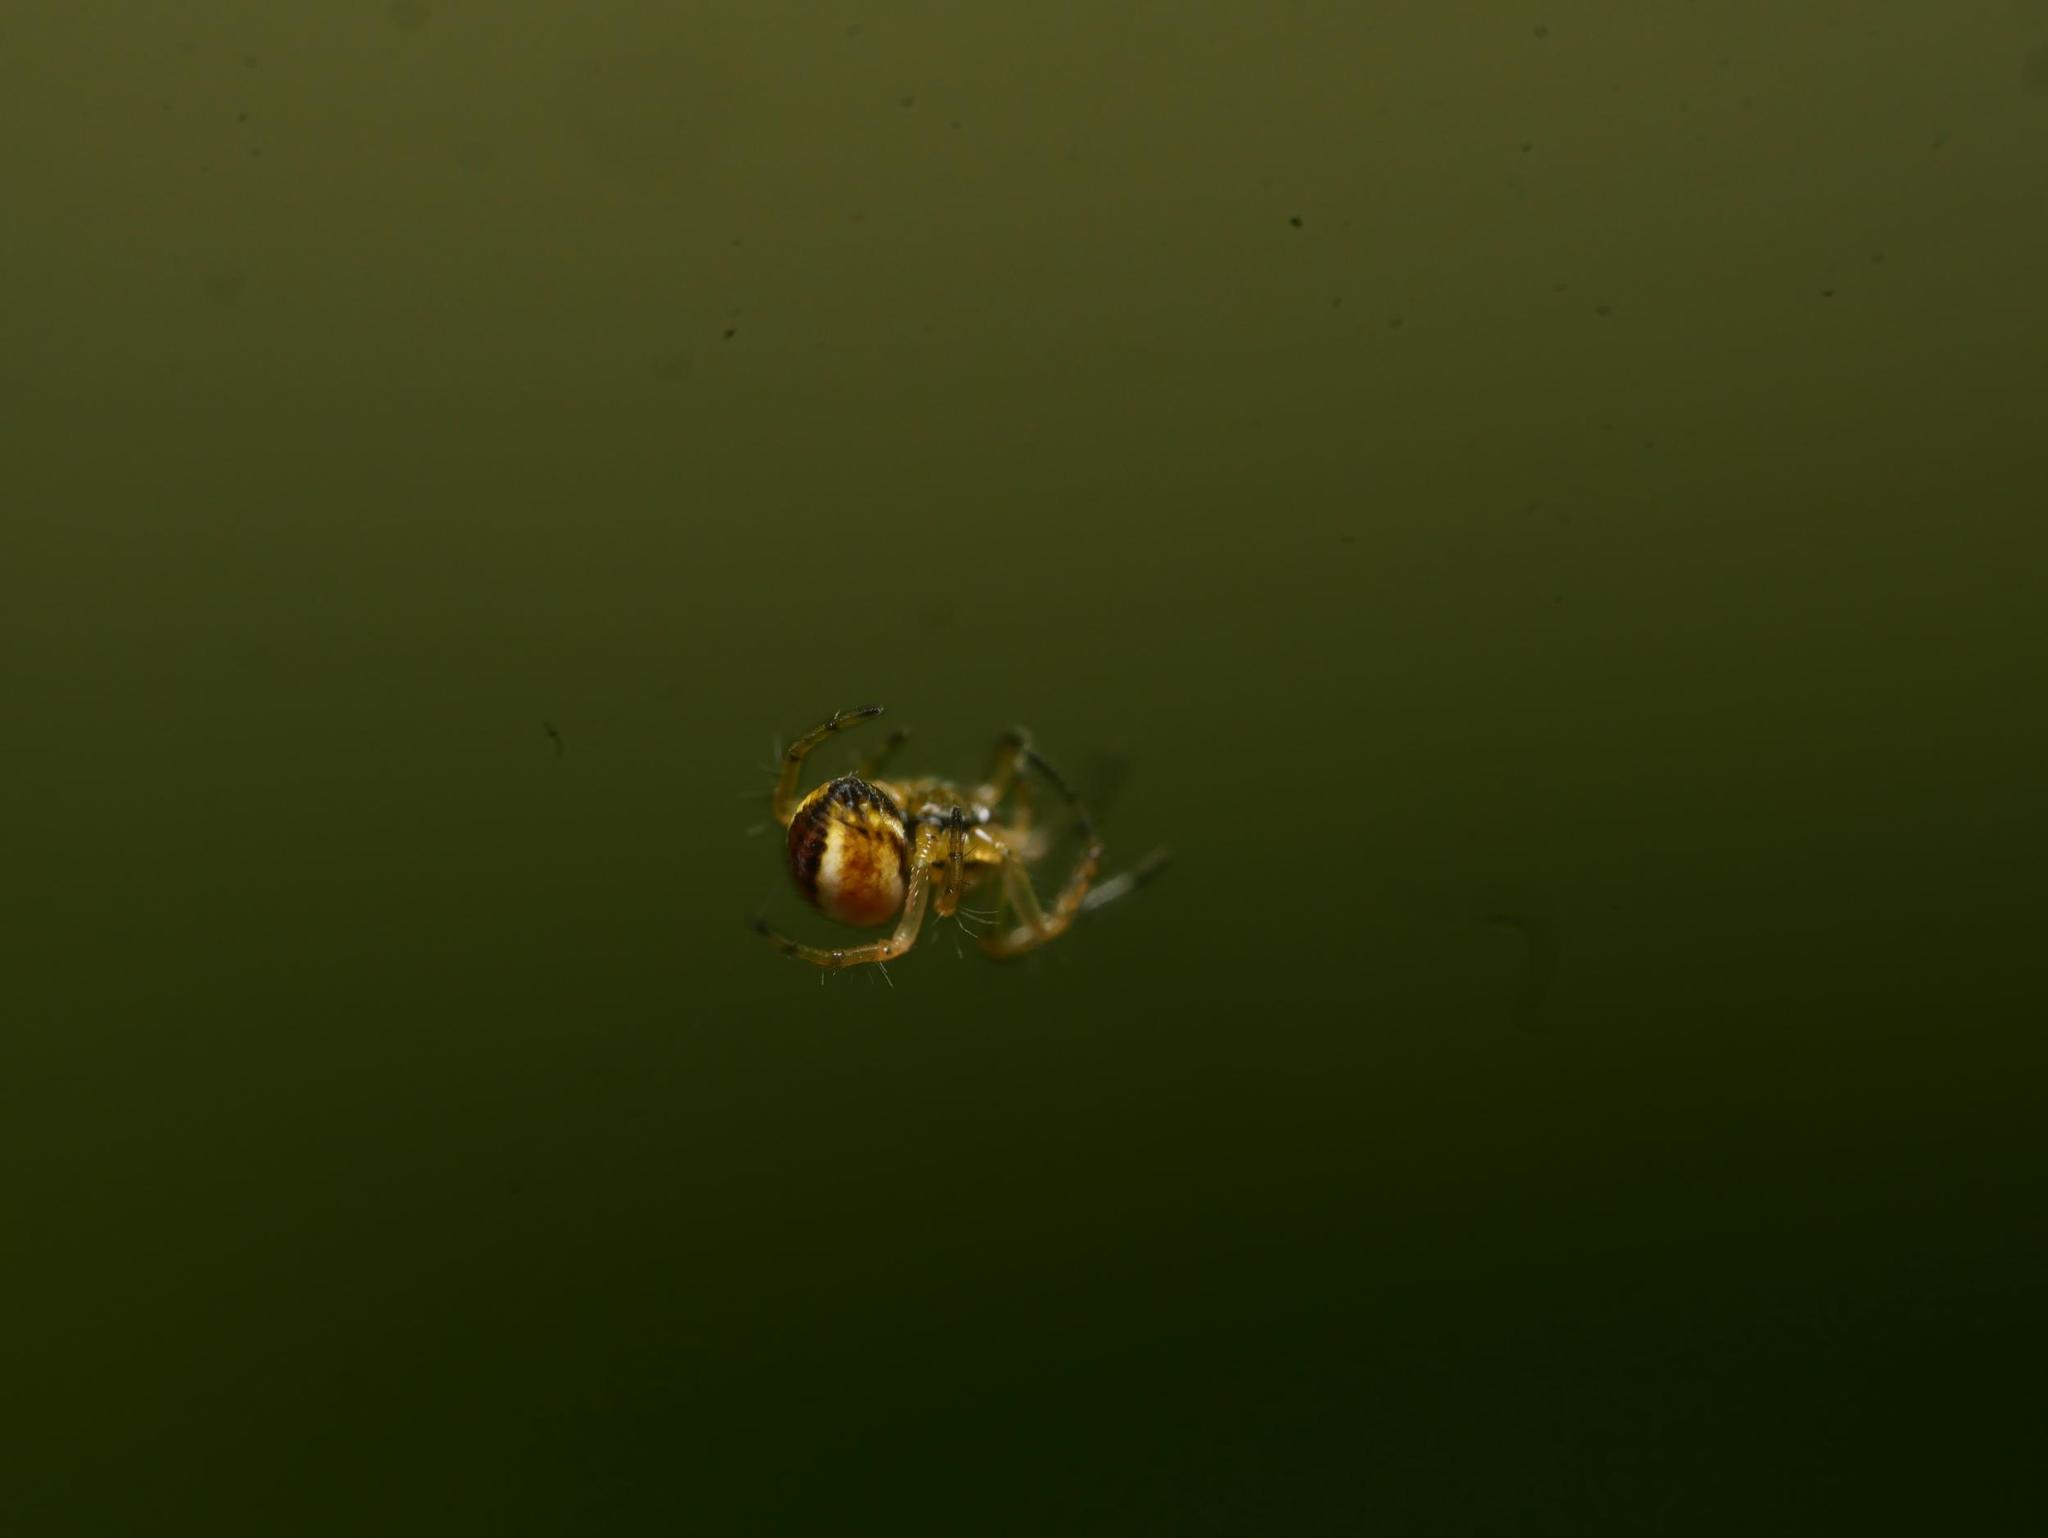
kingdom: Animalia
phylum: Arthropoda
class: Arachnida
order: Araneae
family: Araneidae
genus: Mangora
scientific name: Mangora acalypha
